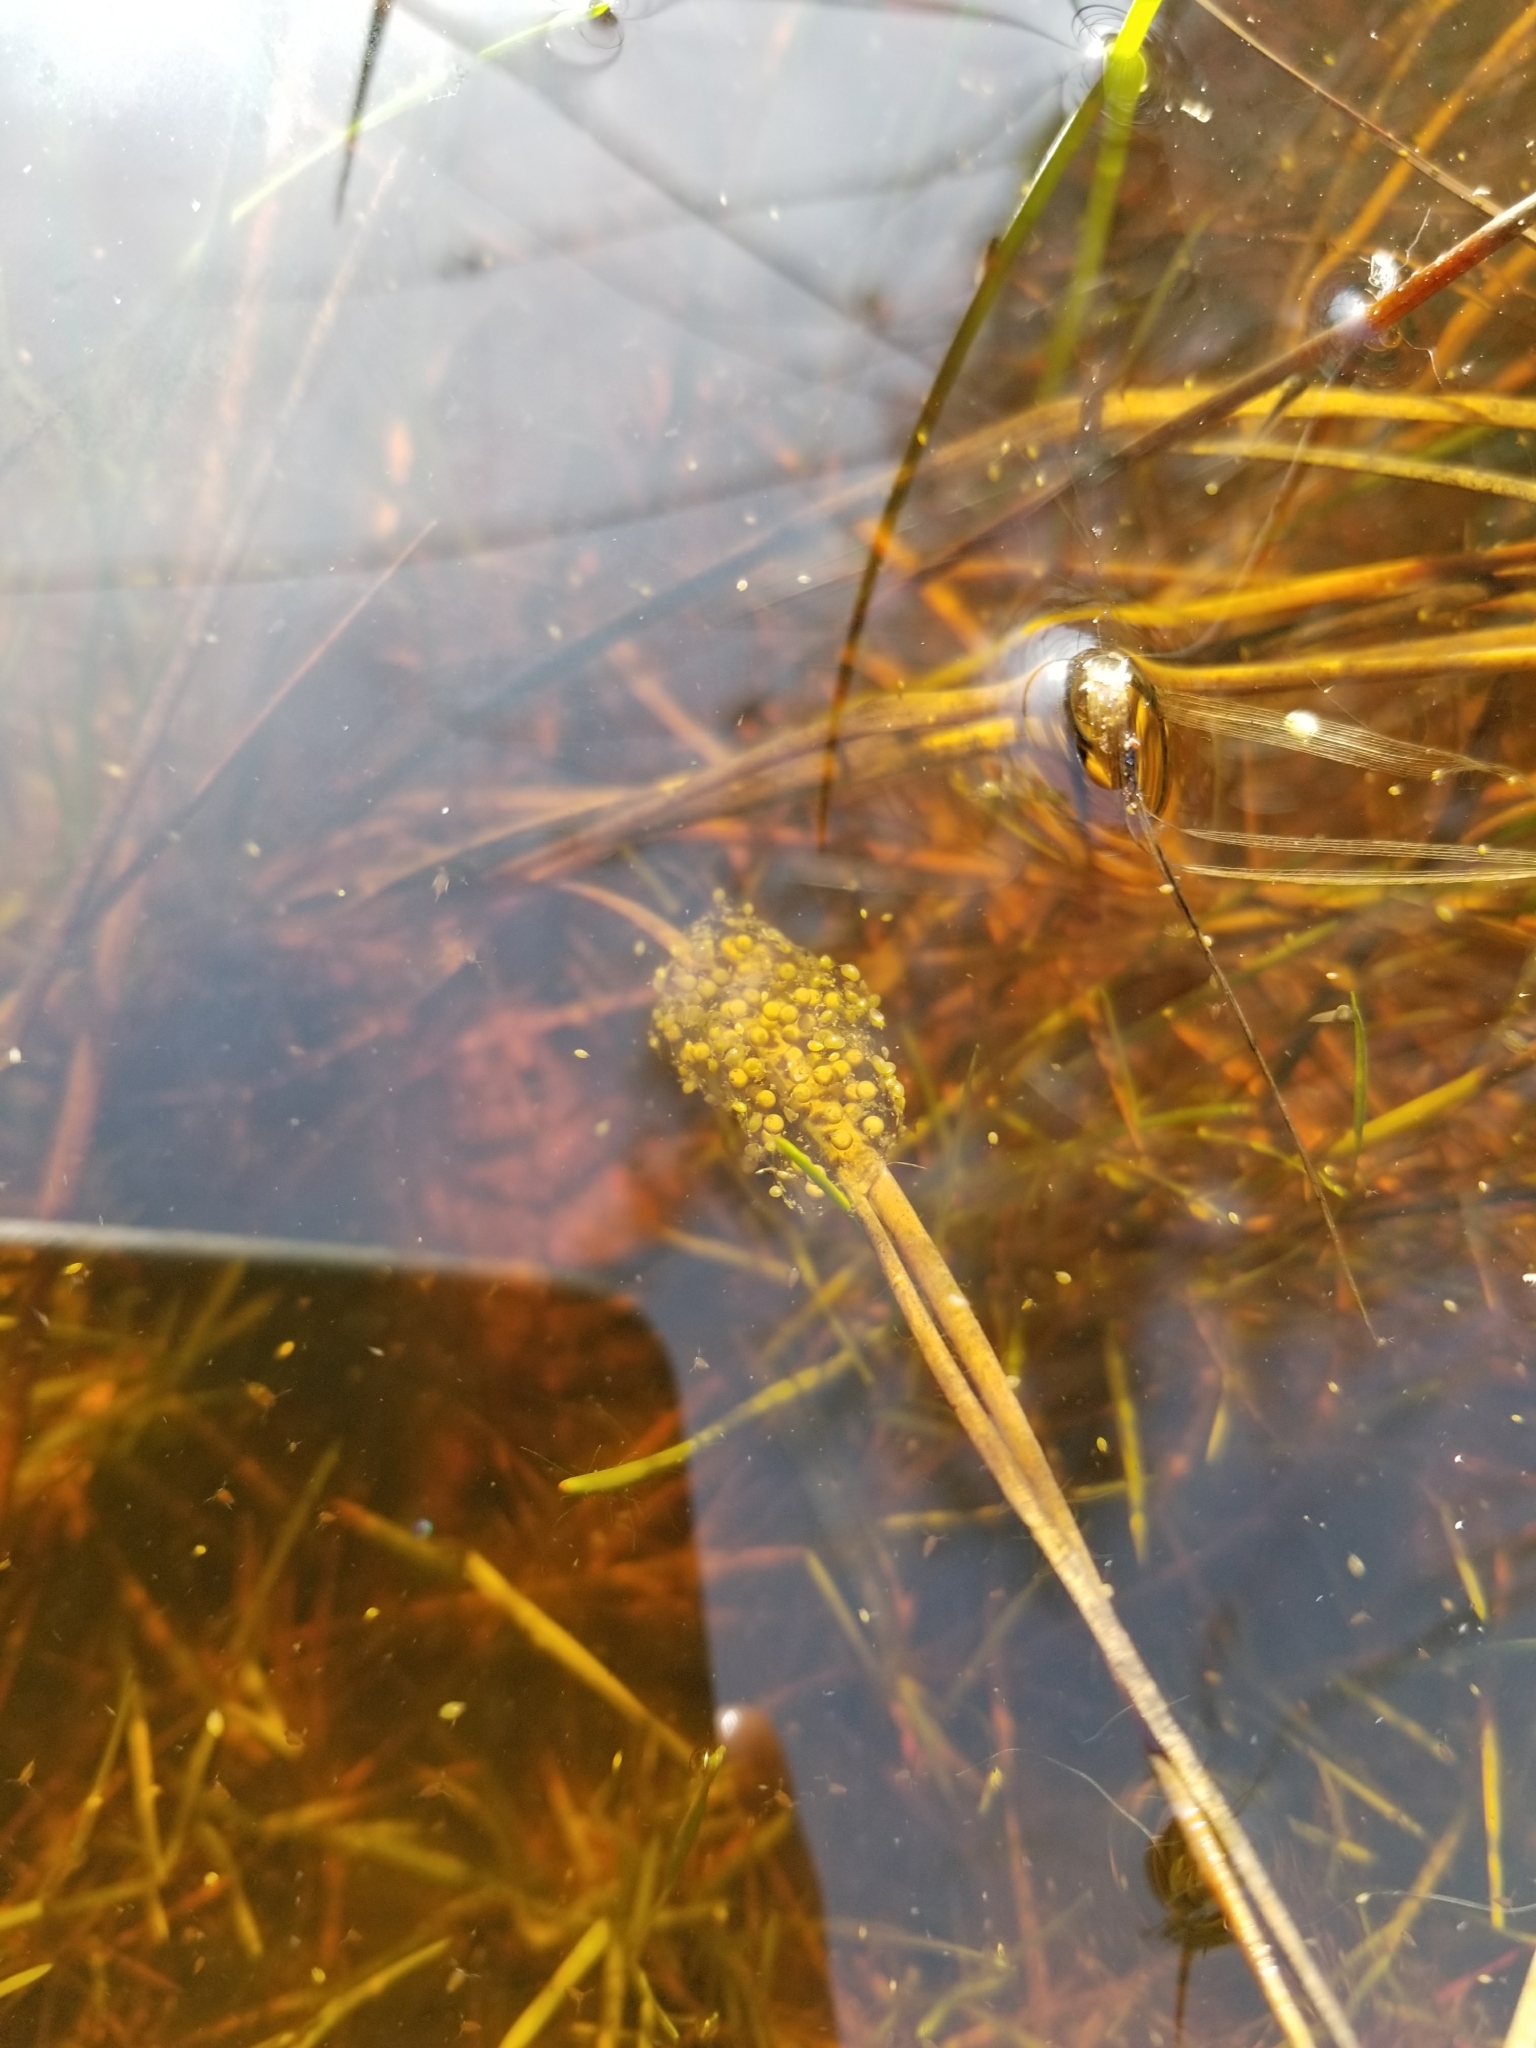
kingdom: Animalia
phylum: Chordata
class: Amphibia
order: Anura
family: Hylidae
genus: Pseudacris
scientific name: Pseudacris regilla
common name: Pacific chorus frog
